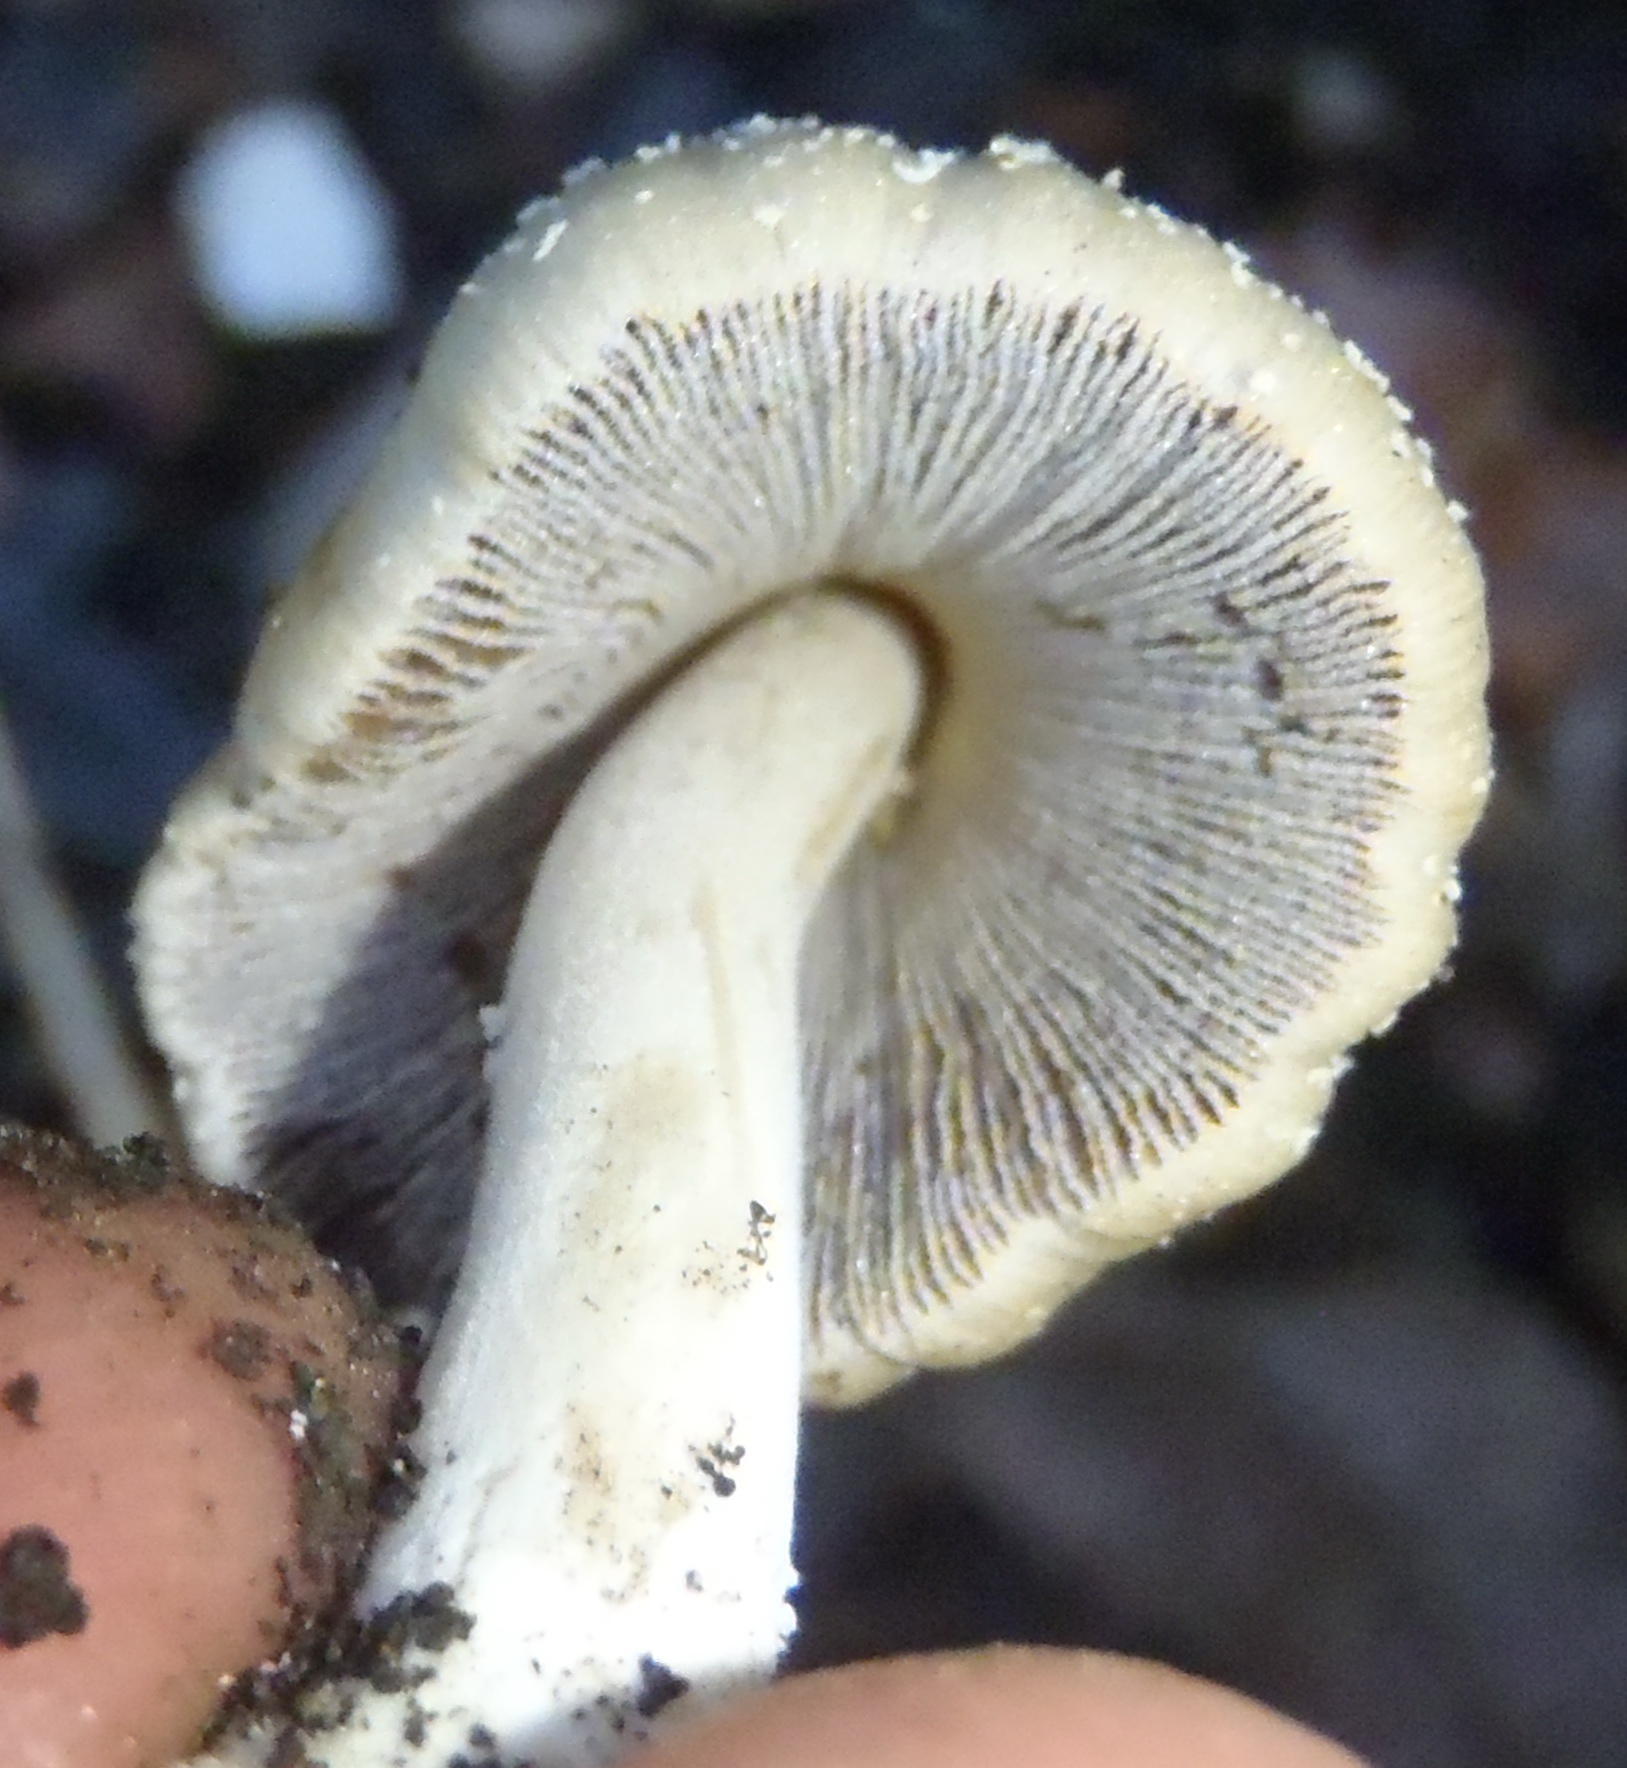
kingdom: Fungi
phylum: Basidiomycota
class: Agaricomycetes
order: Agaricales
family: Psathyrellaceae
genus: Coprinellus
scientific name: Coprinellus micaceus
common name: Glistening ink-cap
